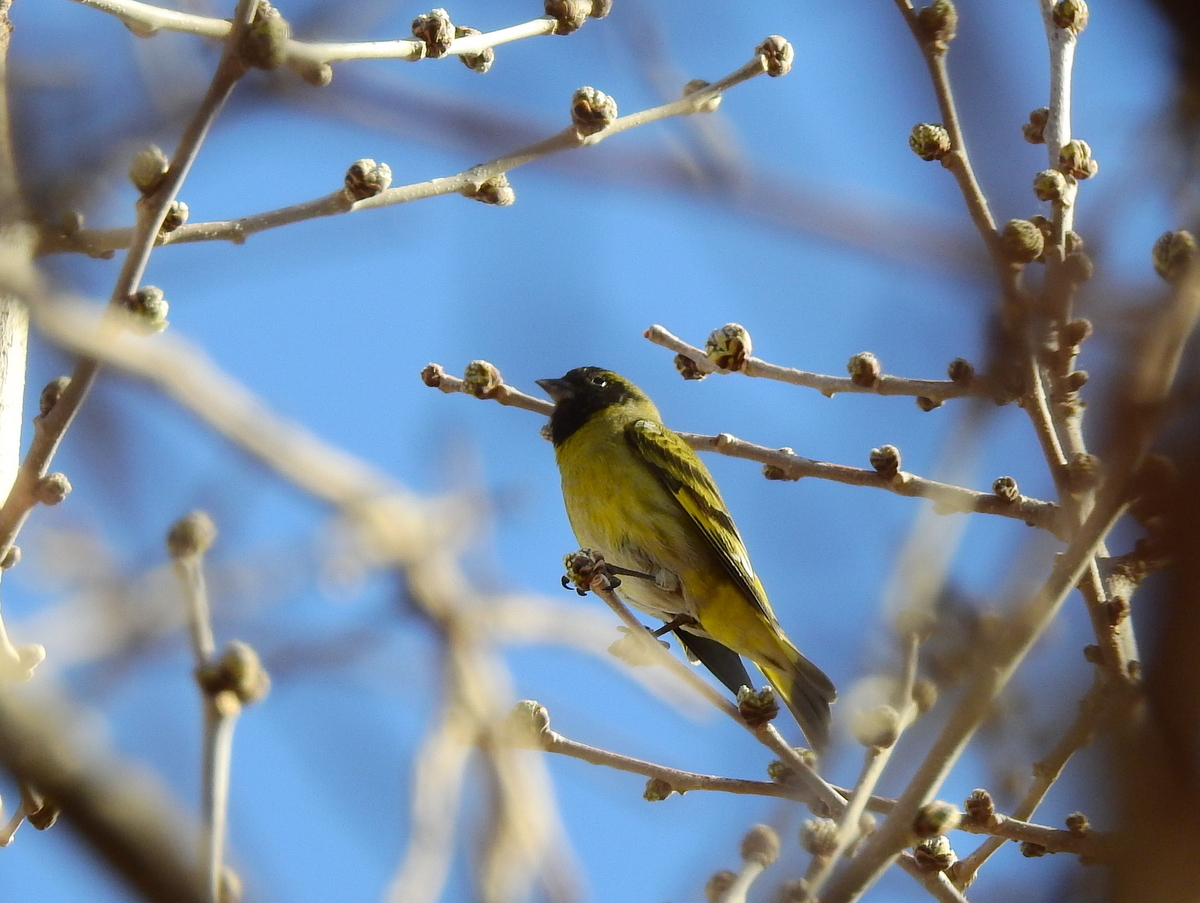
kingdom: Animalia
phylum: Chordata
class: Aves
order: Passeriformes
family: Fringillidae
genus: Spinus
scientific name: Spinus magellanicus
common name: Hooded siskin
